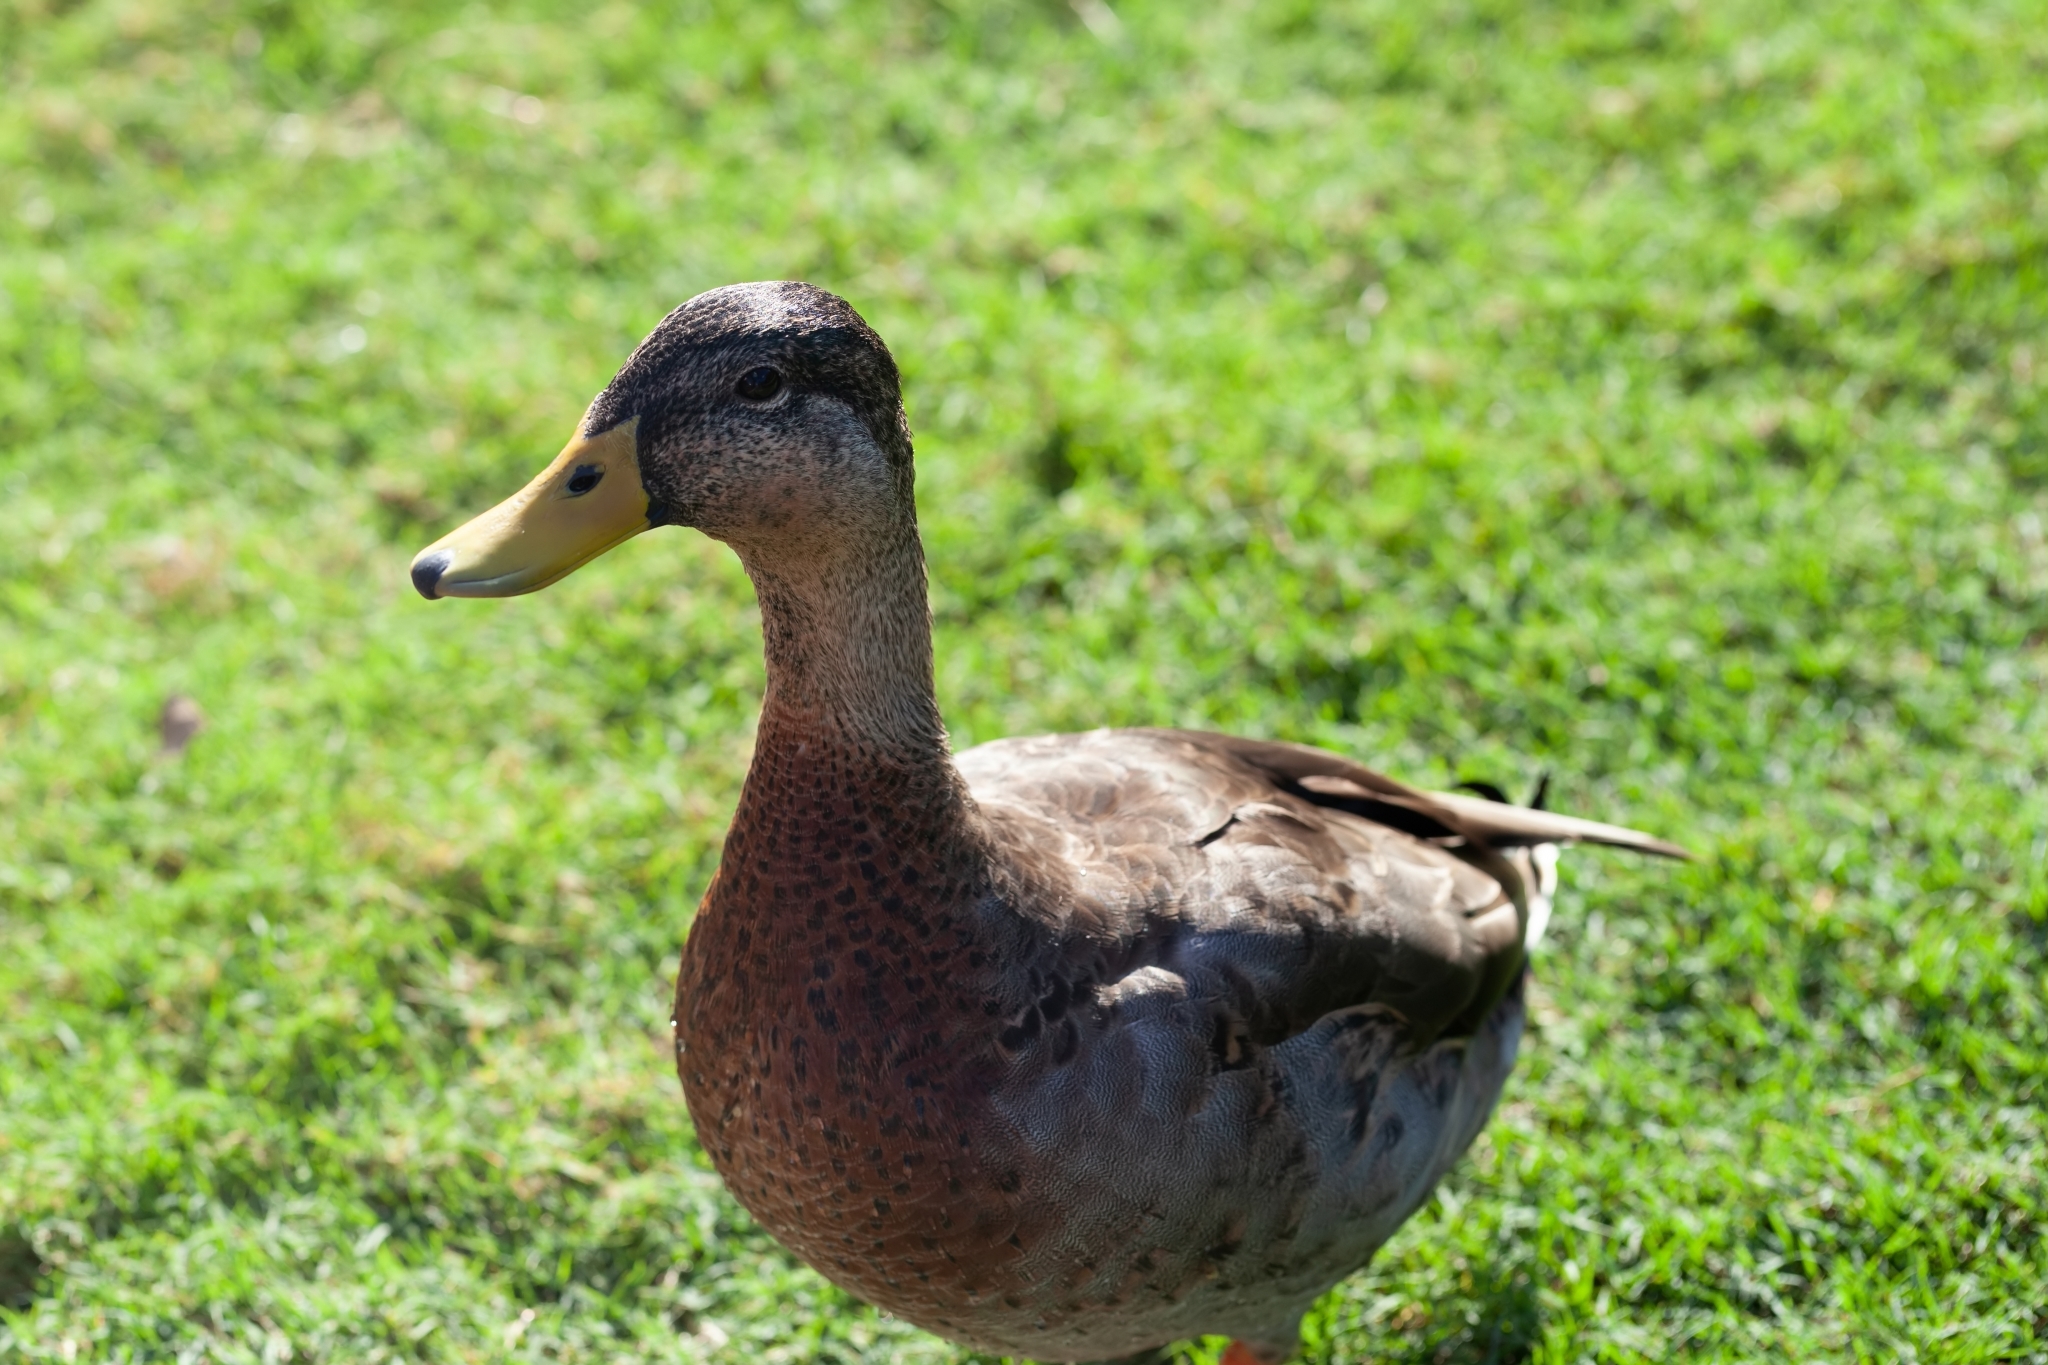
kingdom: Animalia
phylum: Chordata
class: Aves
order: Anseriformes
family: Anatidae
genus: Anas
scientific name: Anas platyrhynchos
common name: Mallard
